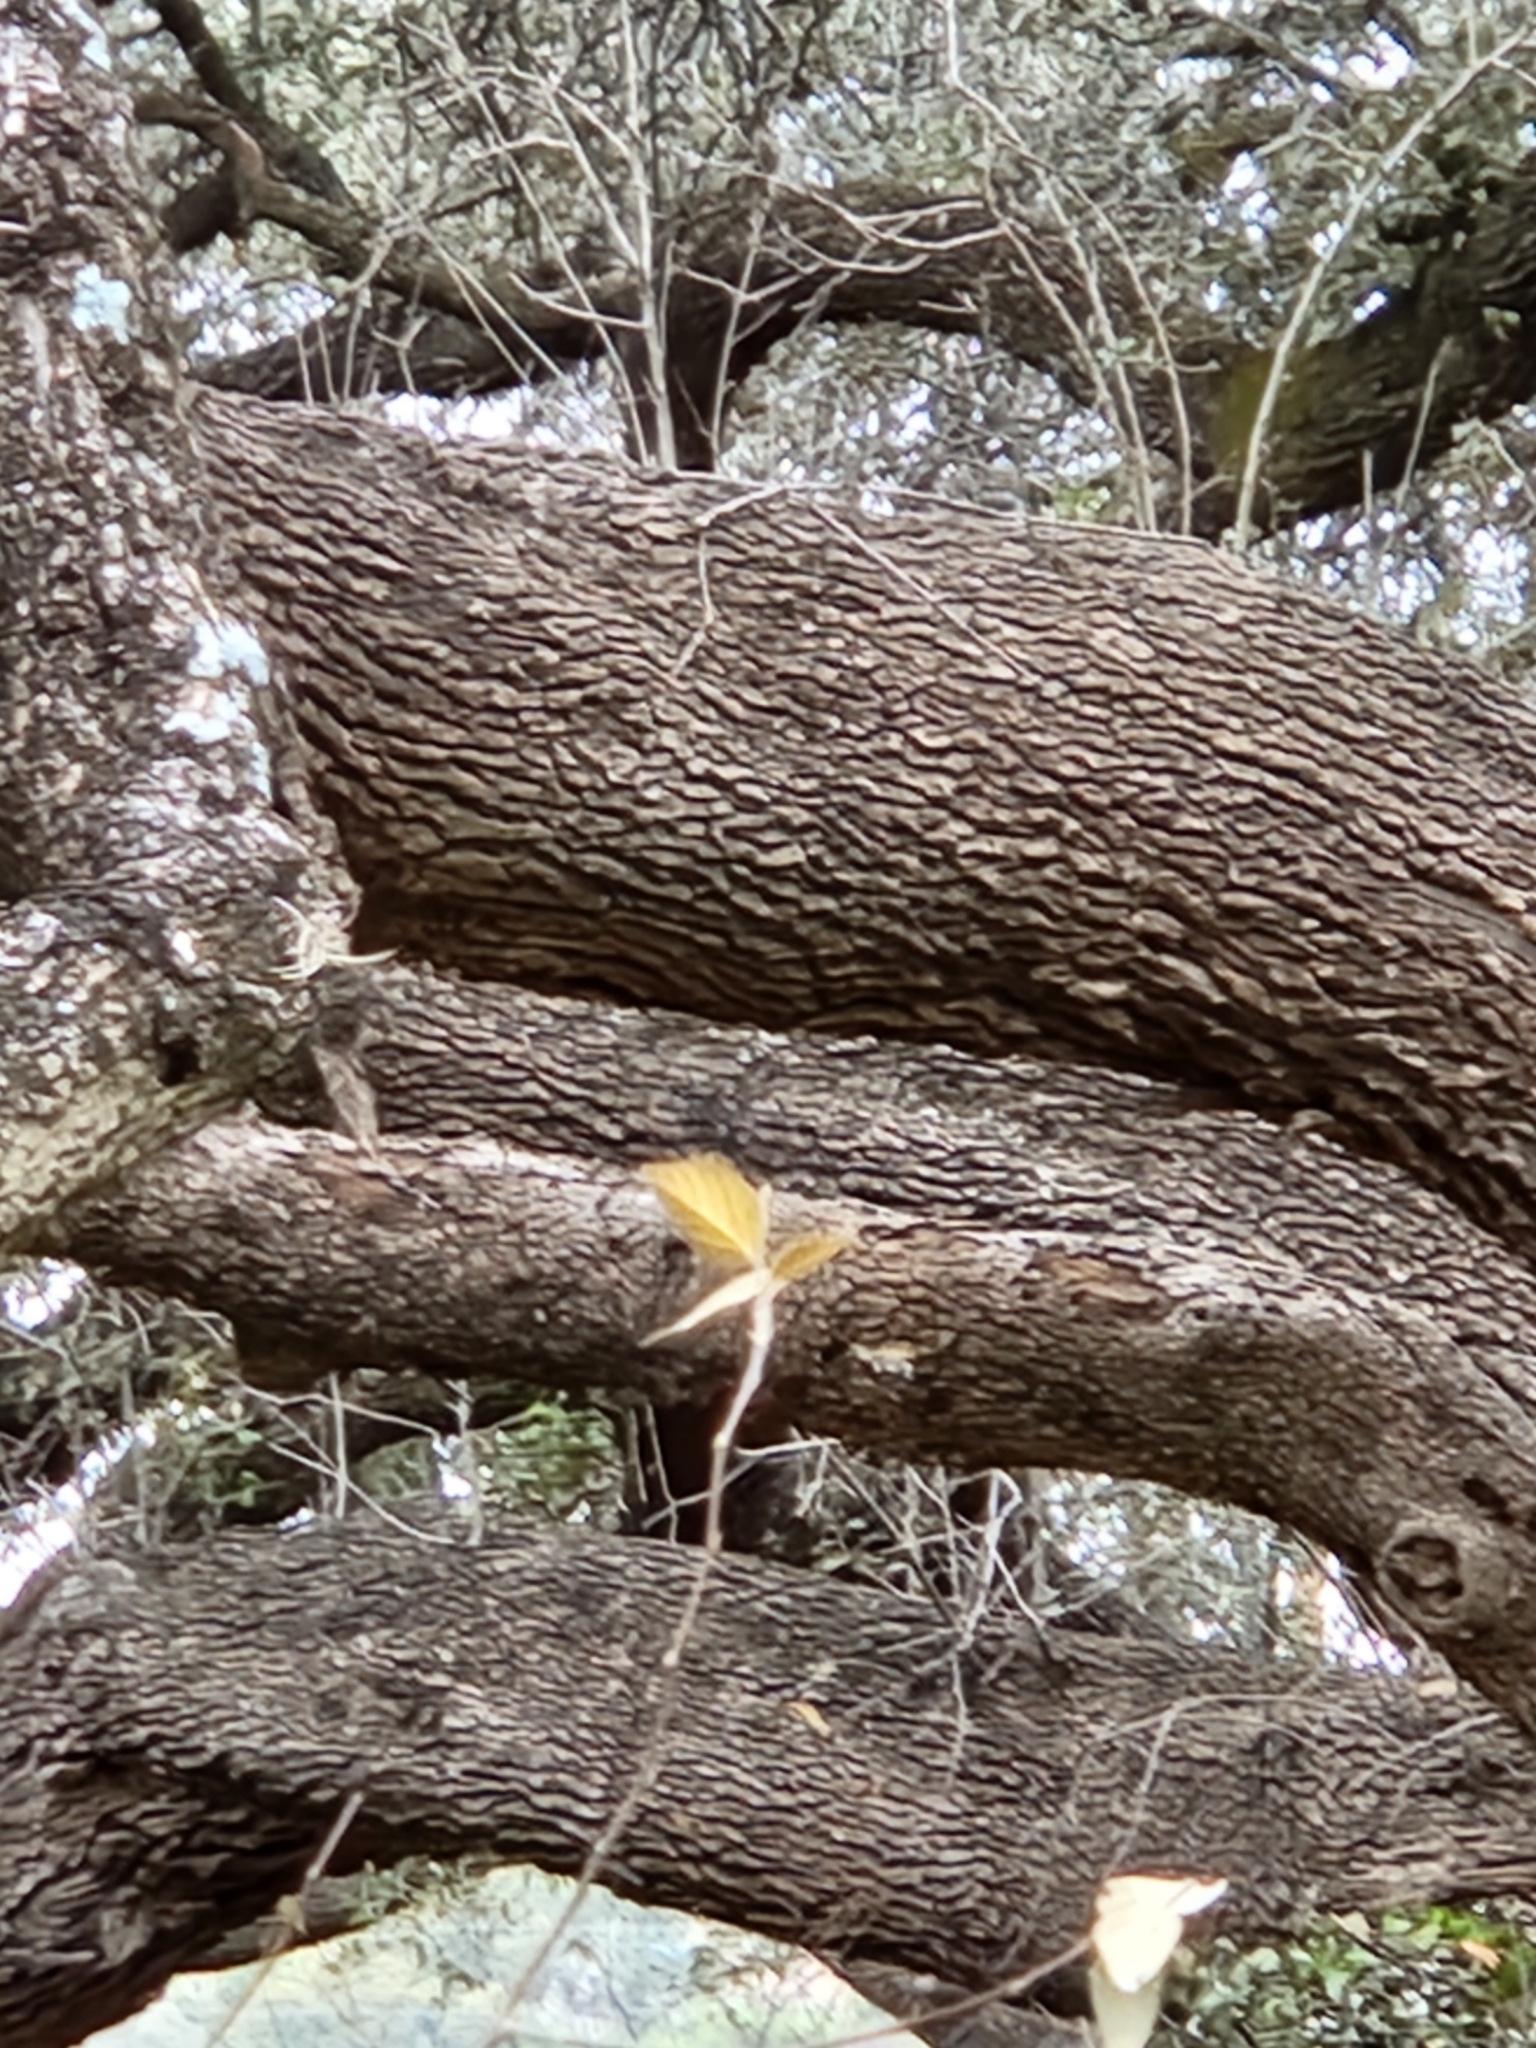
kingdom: Plantae
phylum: Tracheophyta
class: Magnoliopsida
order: Fagales
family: Fagaceae
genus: Quercus
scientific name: Quercus fusiformis
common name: Texas live oak
